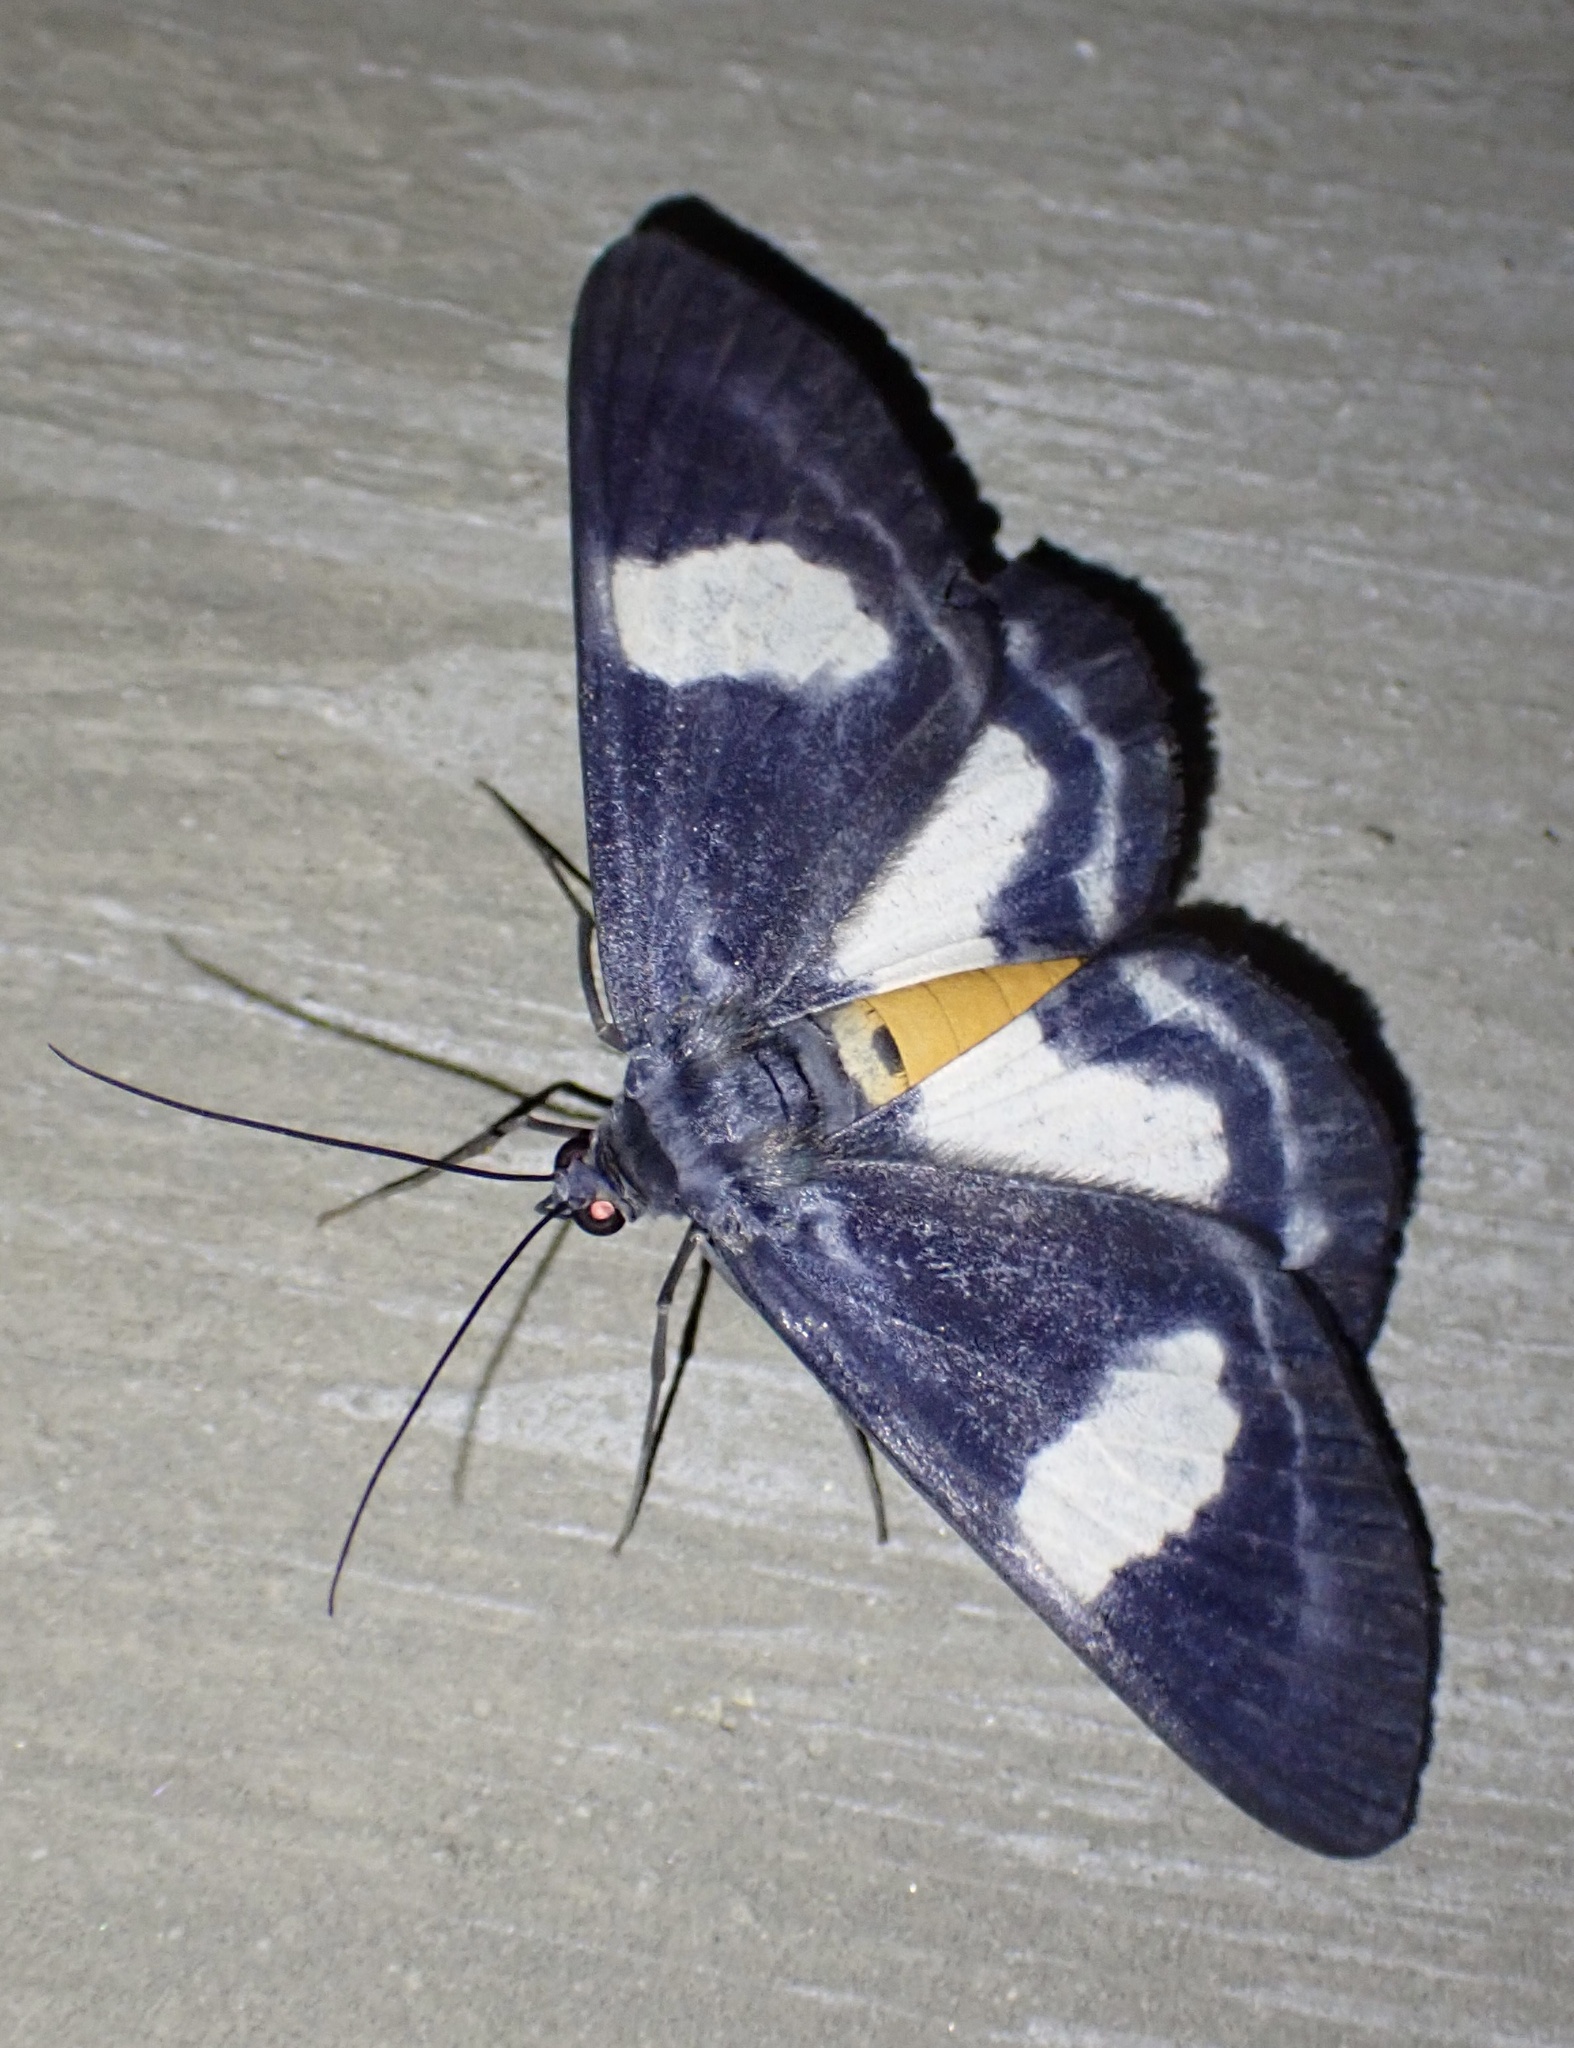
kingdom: Animalia
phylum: Arthropoda
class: Insecta
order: Lepidoptera
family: Geometridae
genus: Craspedosis
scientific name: Craspedosis ernestina
